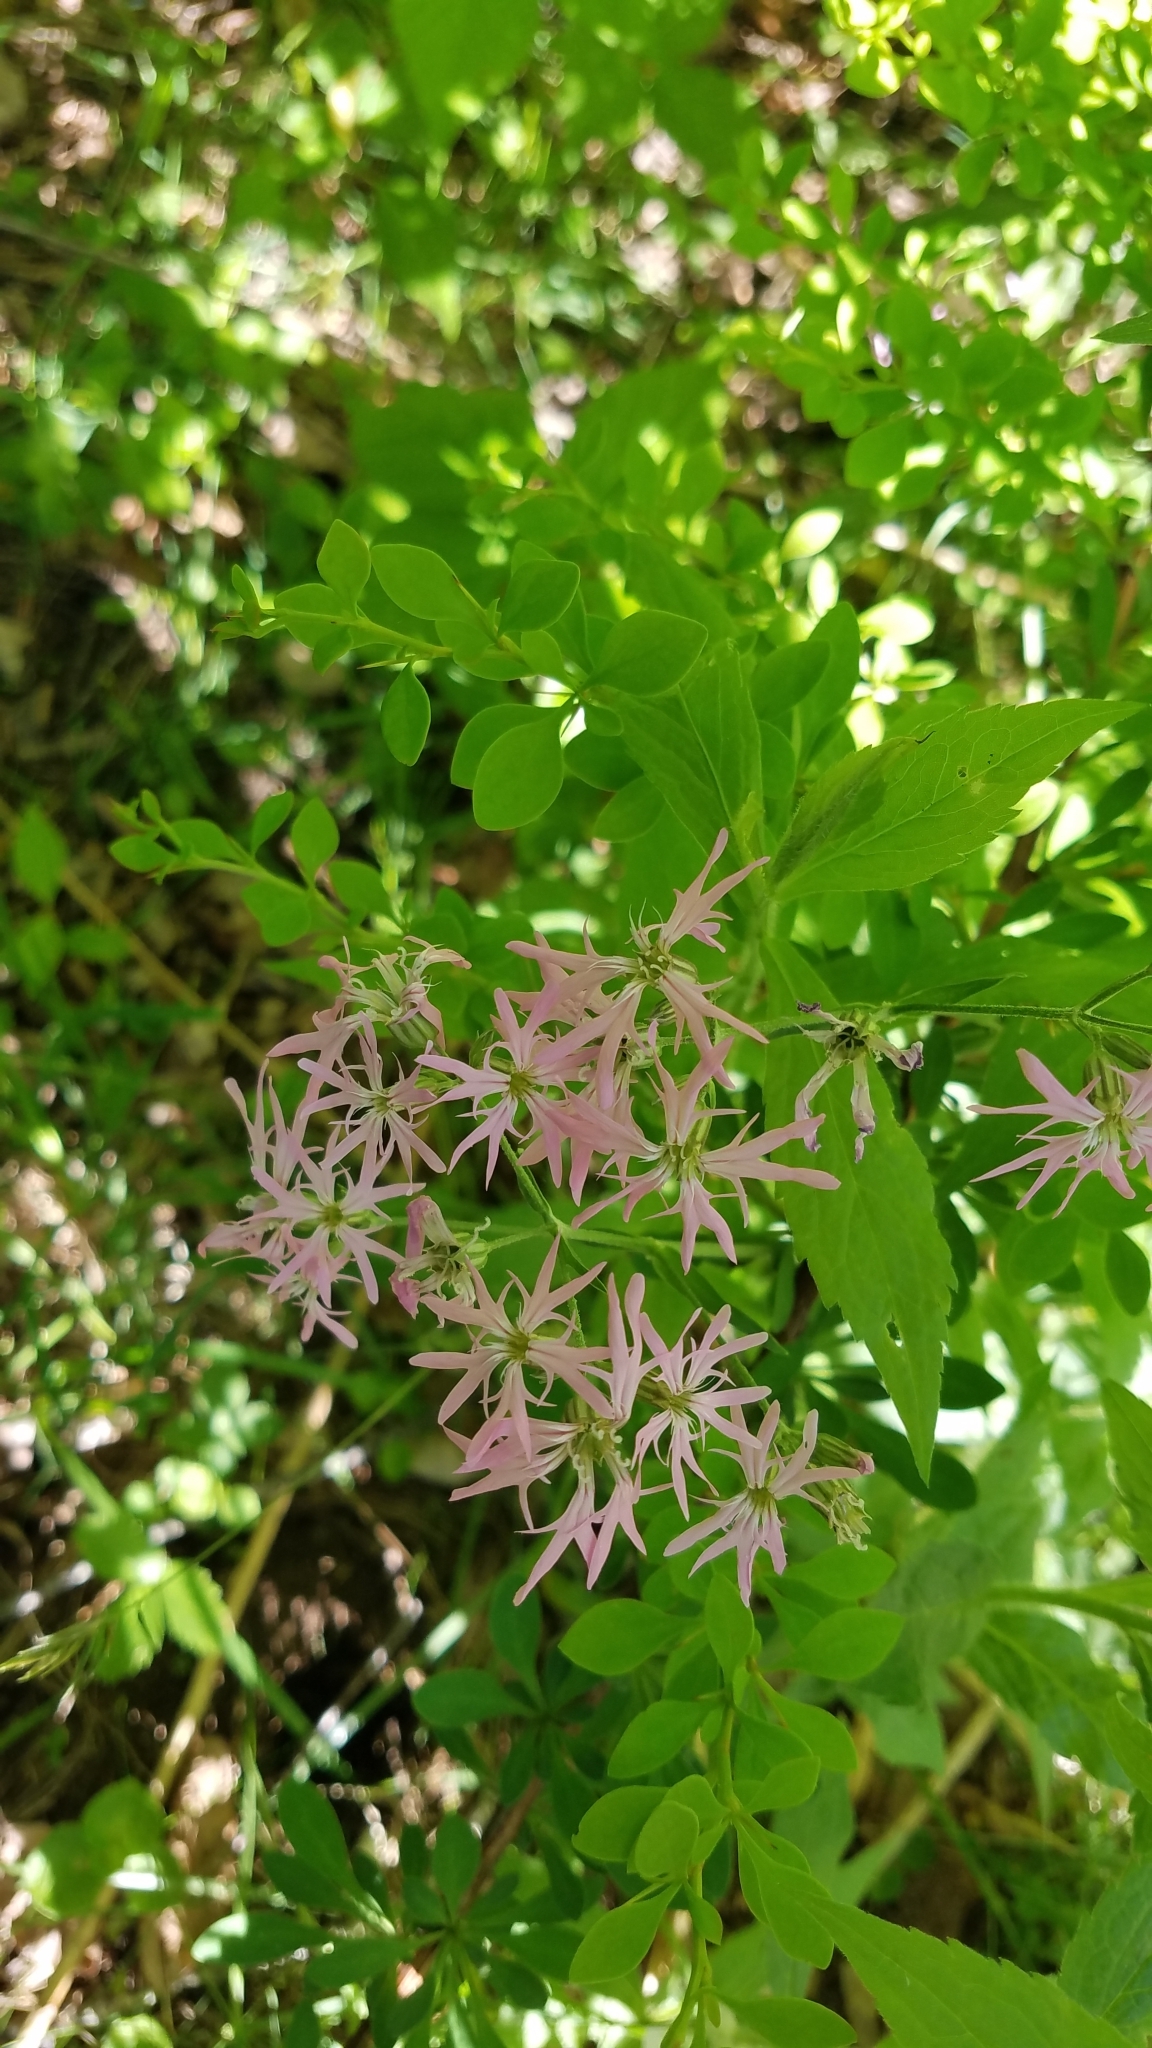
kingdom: Plantae
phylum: Tracheophyta
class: Magnoliopsida
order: Caryophyllales
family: Caryophyllaceae
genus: Silene
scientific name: Silene flos-cuculi
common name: Ragged-robin
